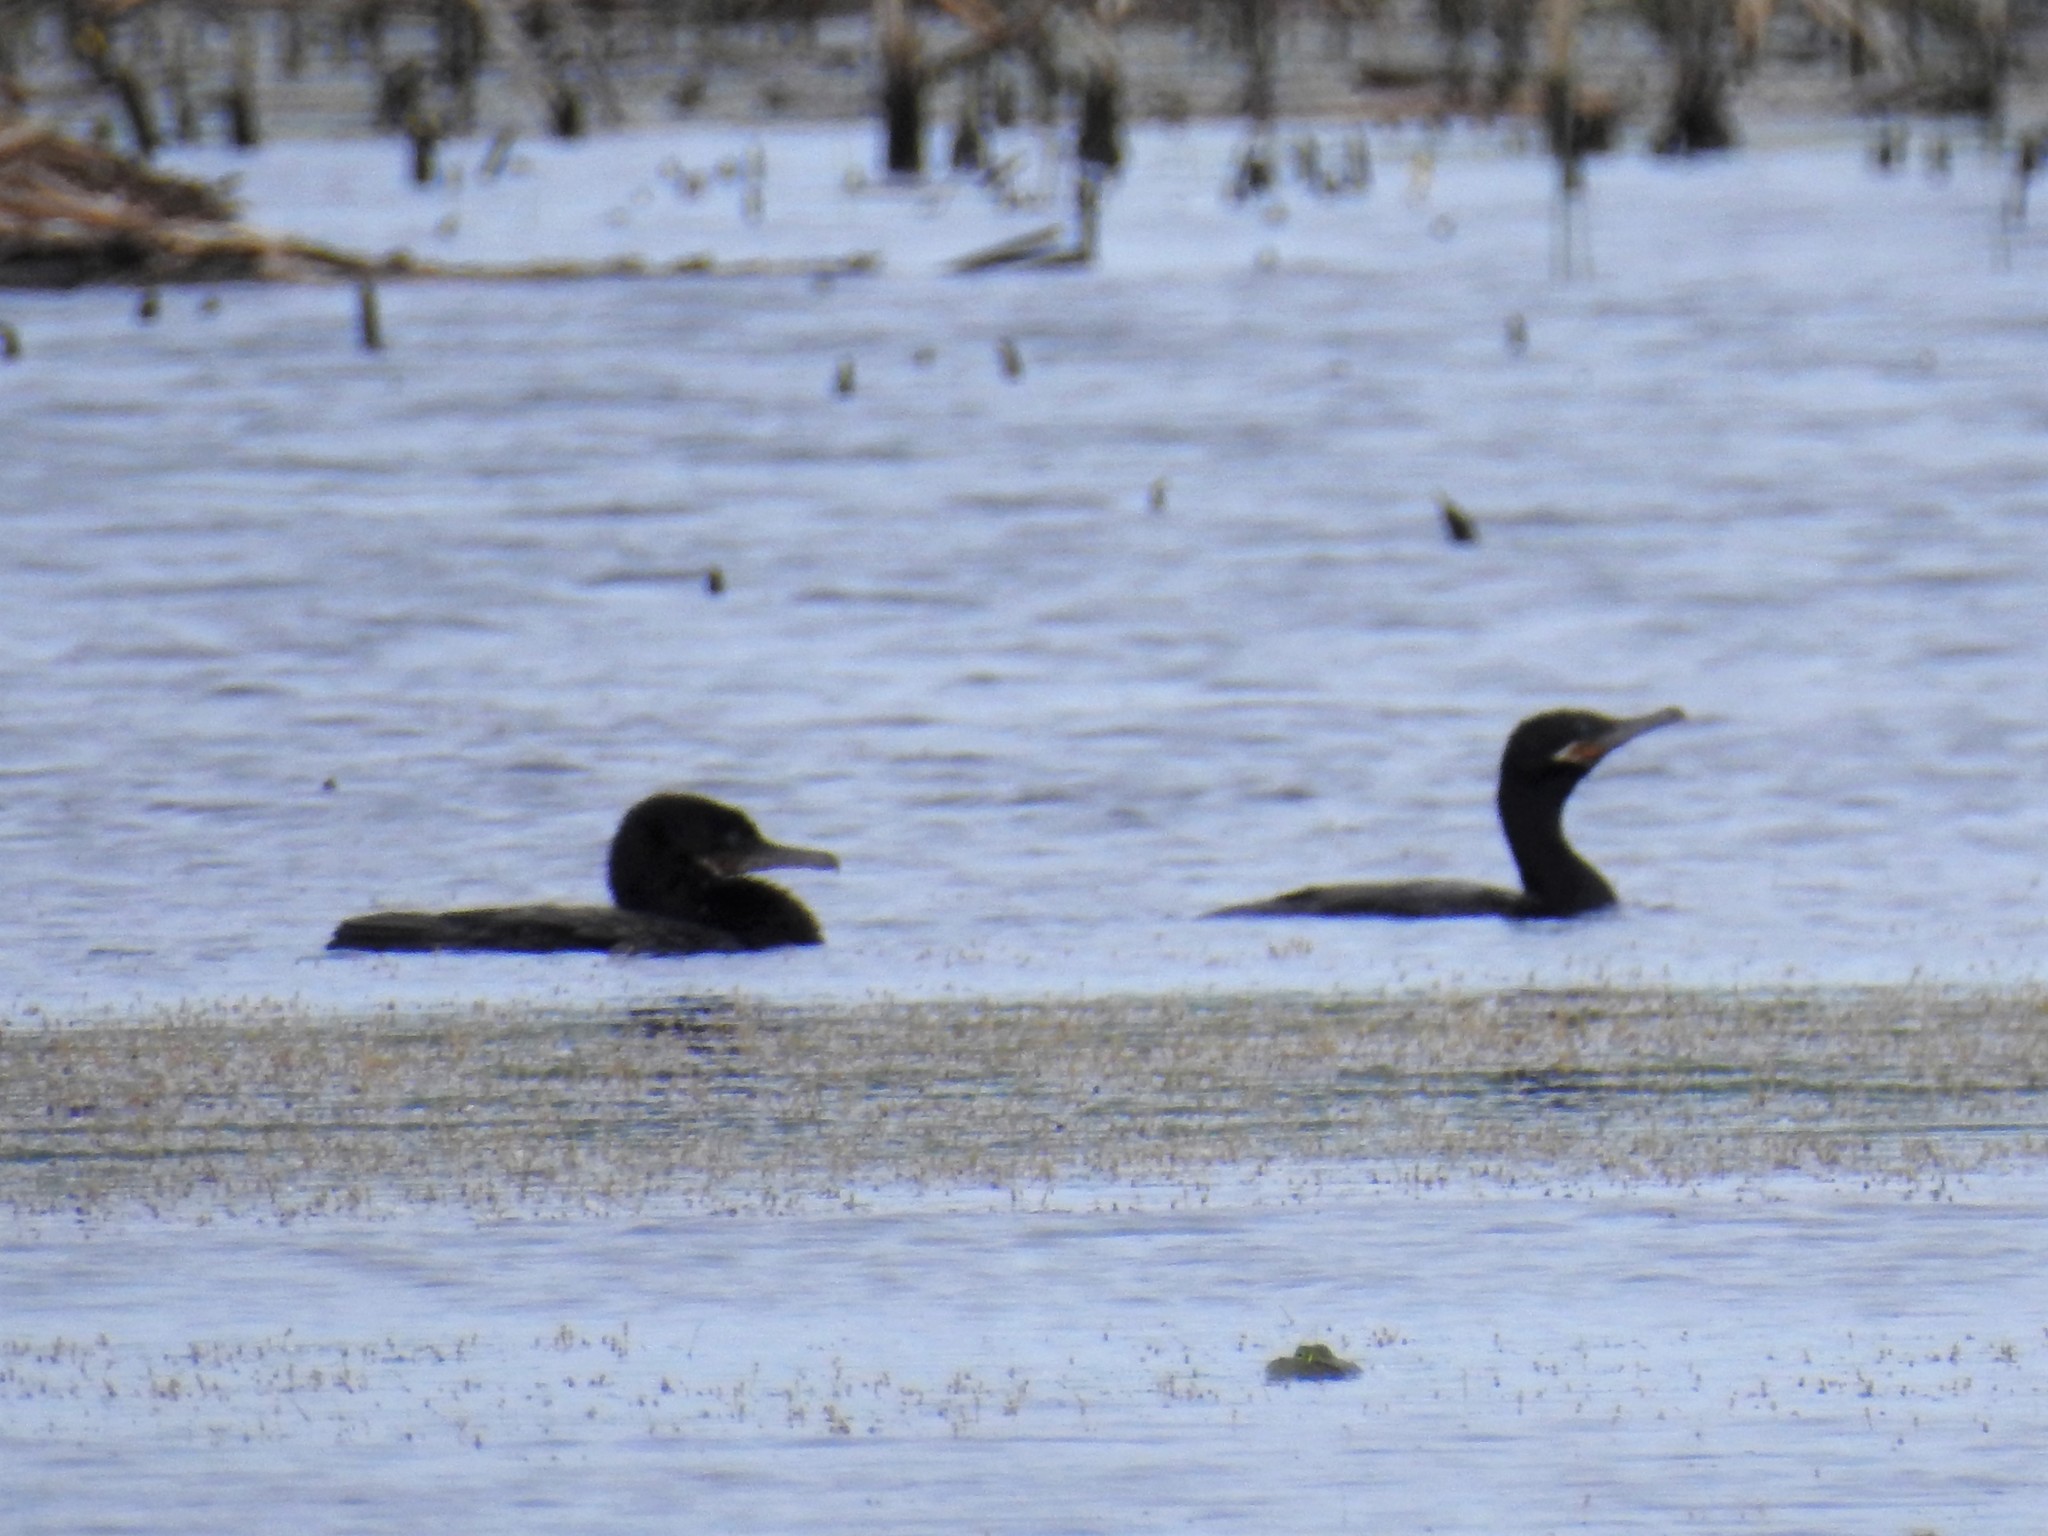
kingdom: Animalia
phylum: Chordata
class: Aves
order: Suliformes
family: Phalacrocoracidae
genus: Phalacrocorax
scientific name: Phalacrocorax brasilianus
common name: Neotropic cormorant
